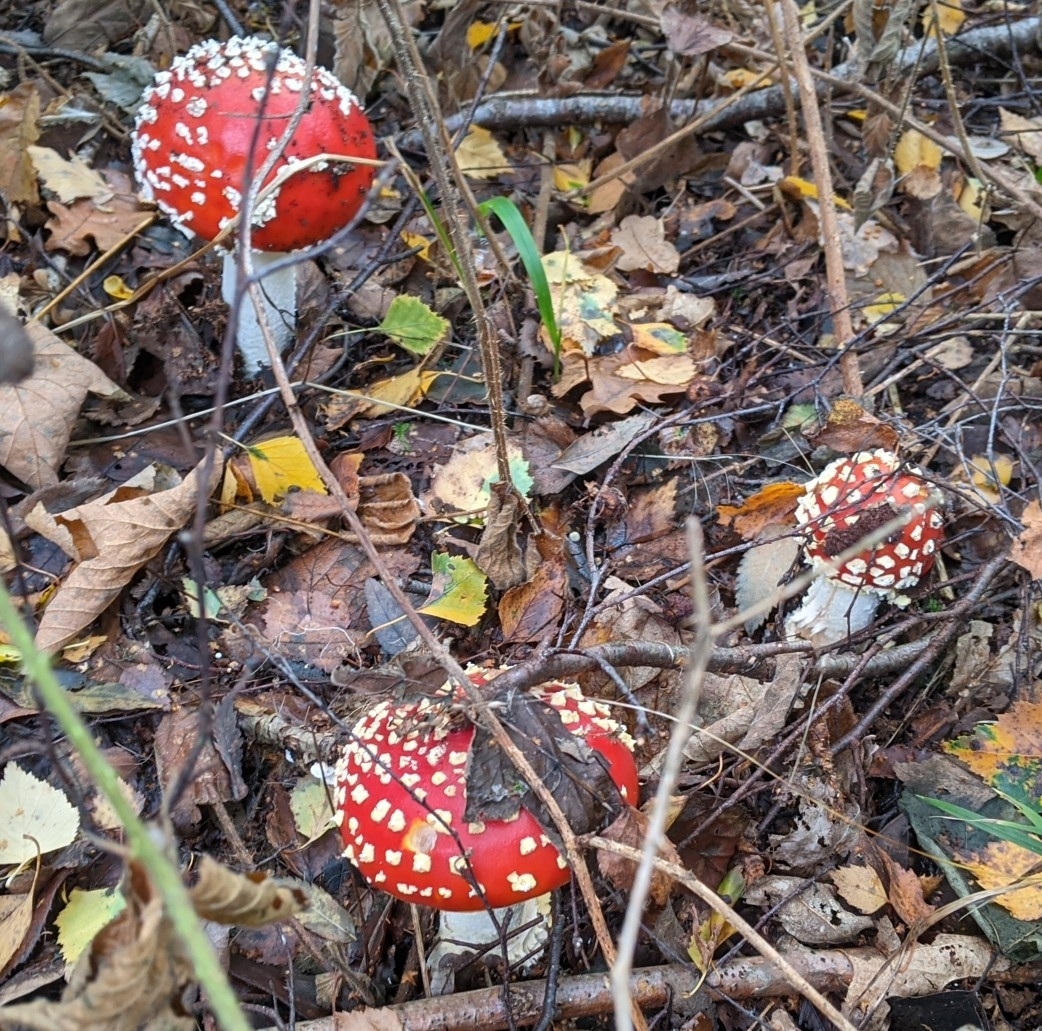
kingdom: Fungi
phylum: Basidiomycota
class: Agaricomycetes
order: Agaricales
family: Amanitaceae
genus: Amanita
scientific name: Amanita muscaria
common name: Fly agaric
